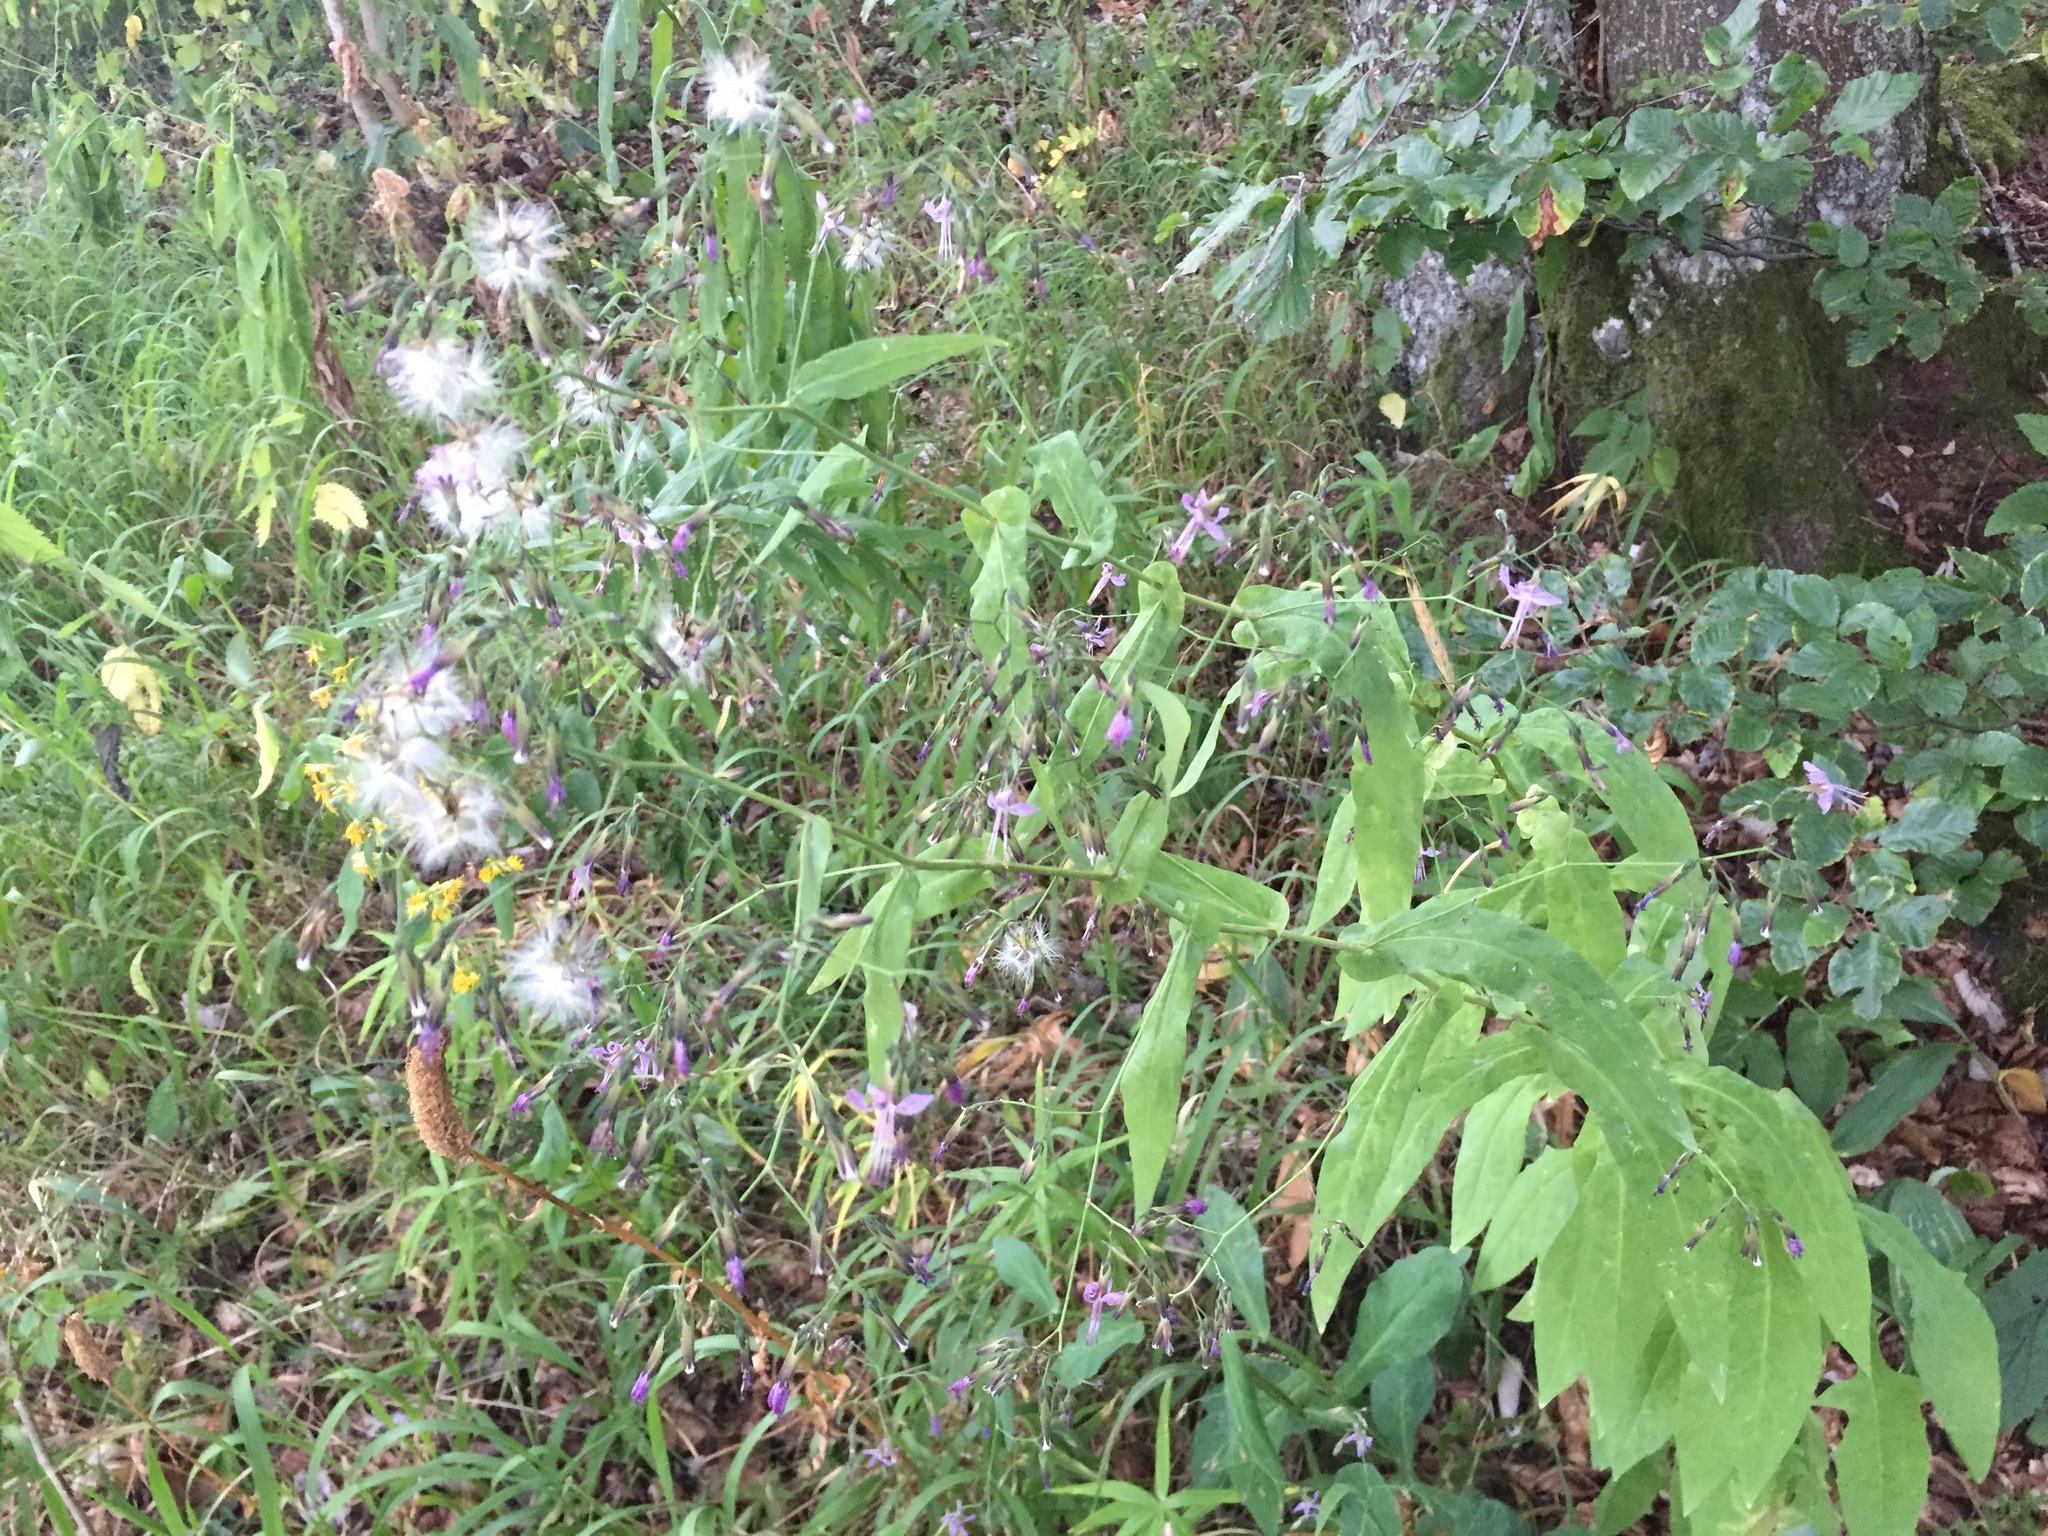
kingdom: Plantae
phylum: Tracheophyta
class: Magnoliopsida
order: Asterales
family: Asteraceae
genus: Prenanthes
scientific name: Prenanthes purpurea
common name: Purple lettuce
